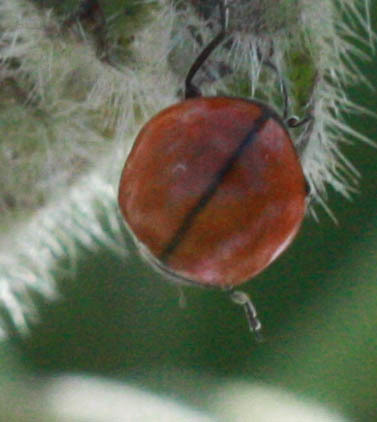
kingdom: Animalia
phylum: Arthropoda
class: Insecta
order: Coleoptera
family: Coccinellidae
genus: Coccinella
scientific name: Coccinella californica
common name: Lady beetle
